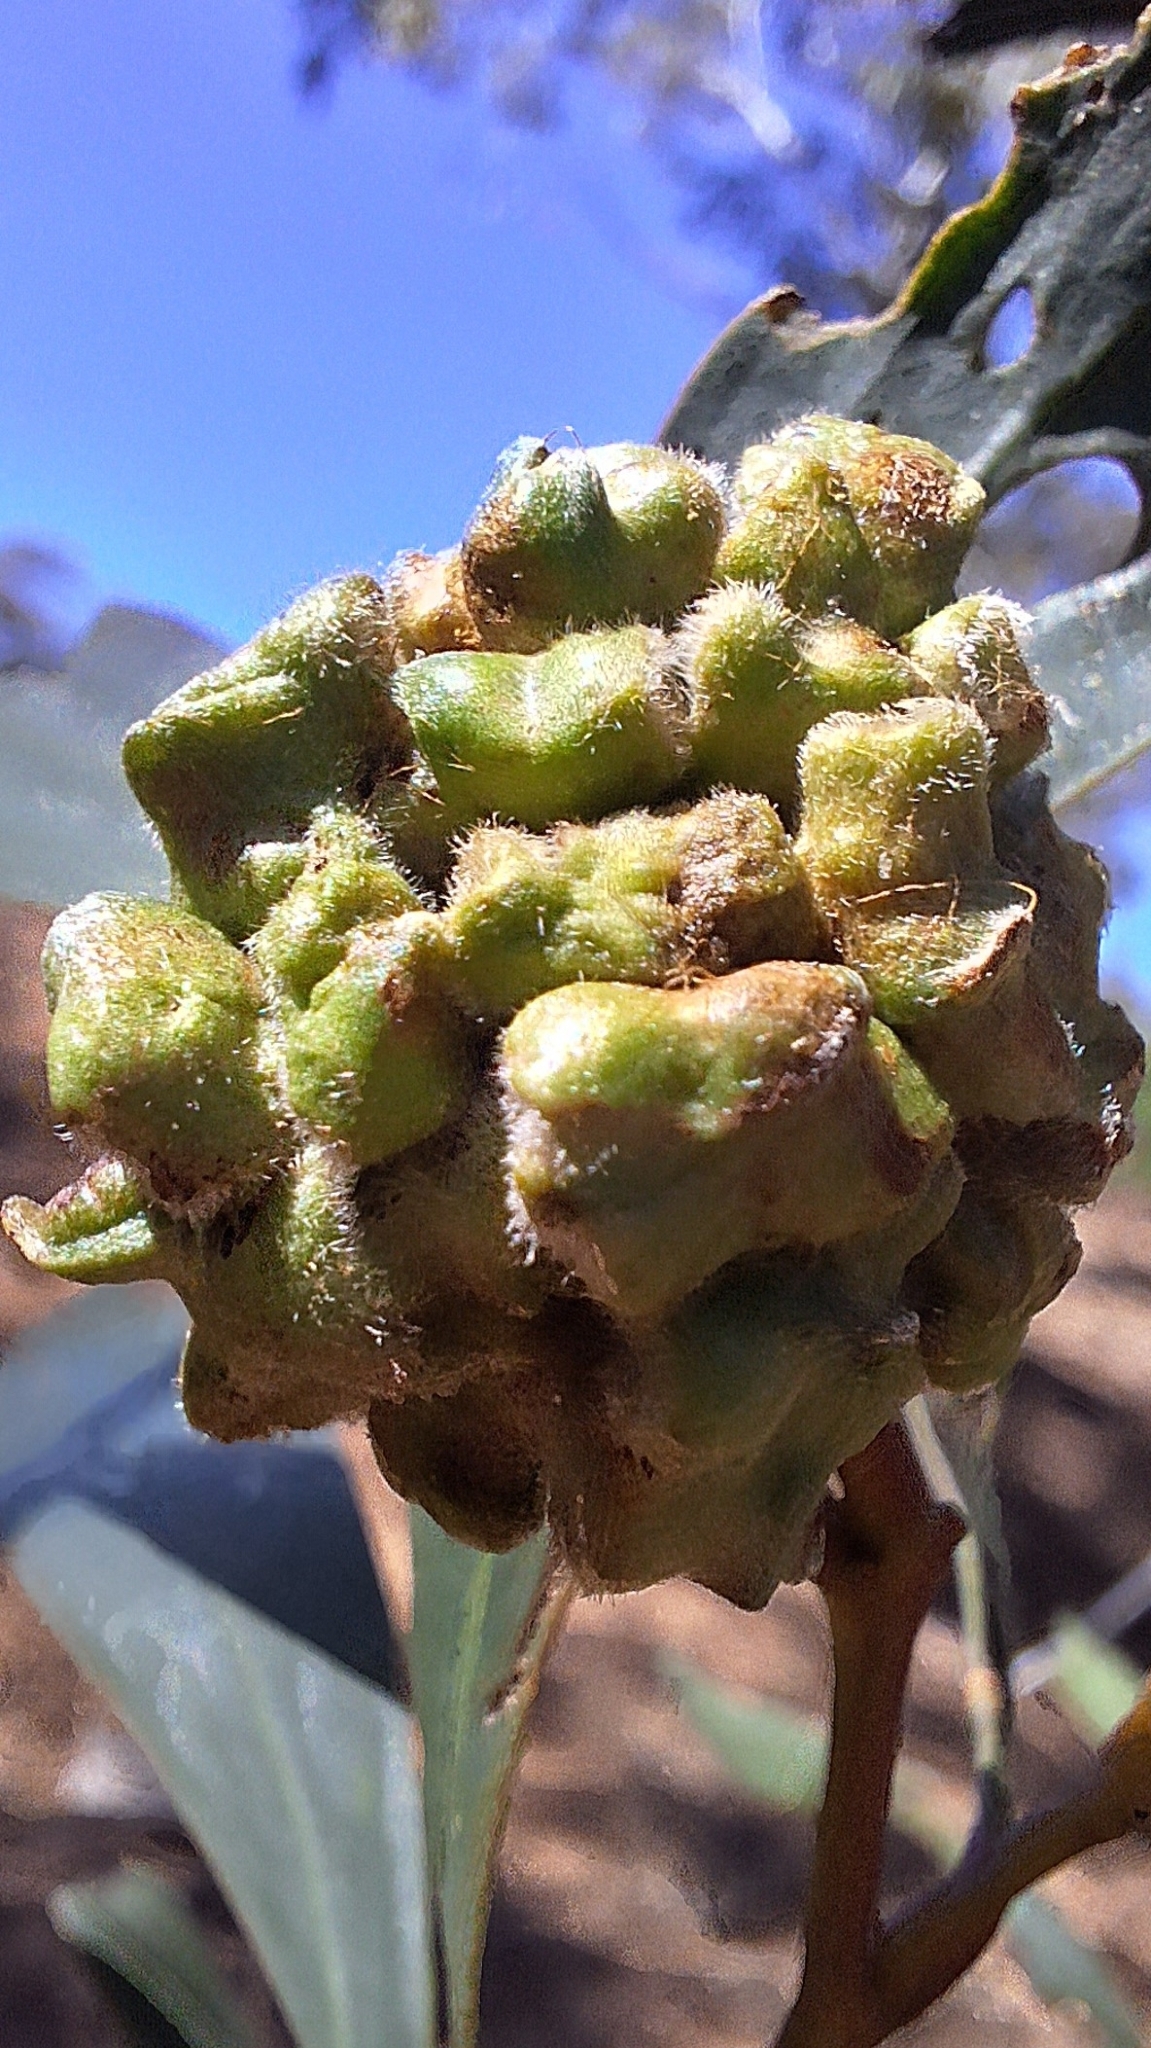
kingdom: Animalia
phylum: Arthropoda
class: Insecta
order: Diptera
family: Cecidomyiidae
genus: Dasineura
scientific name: Dasineura glomerata
